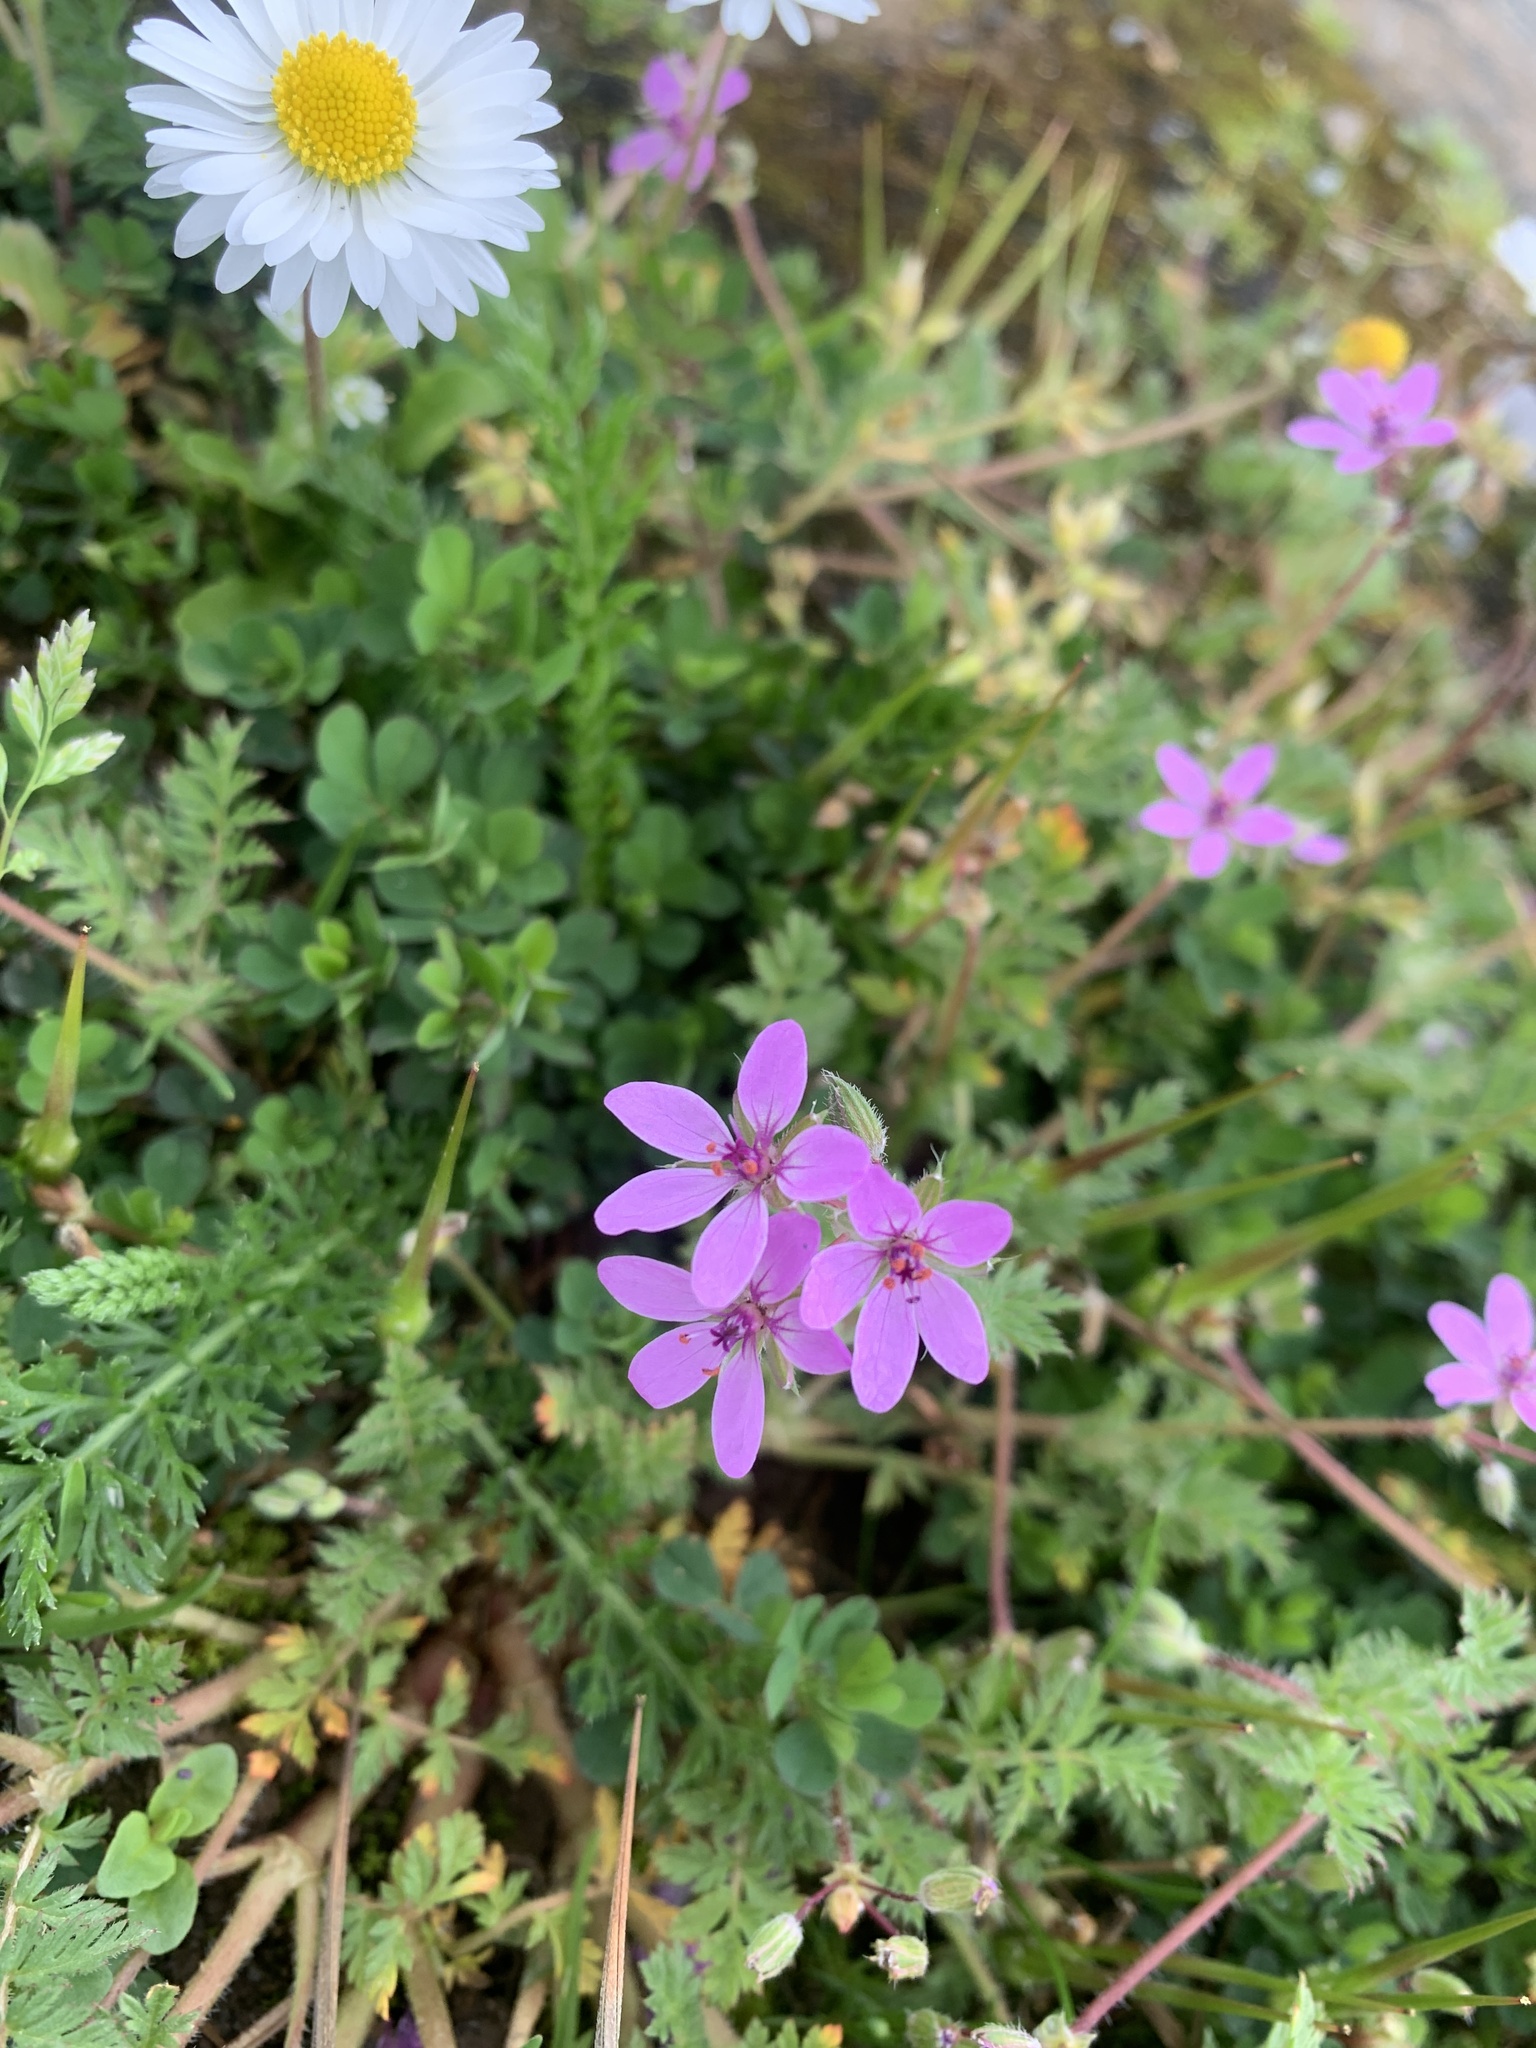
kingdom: Plantae
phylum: Tracheophyta
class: Magnoliopsida
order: Geraniales
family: Geraniaceae
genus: Erodium
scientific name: Erodium cicutarium
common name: Common stork's-bill
